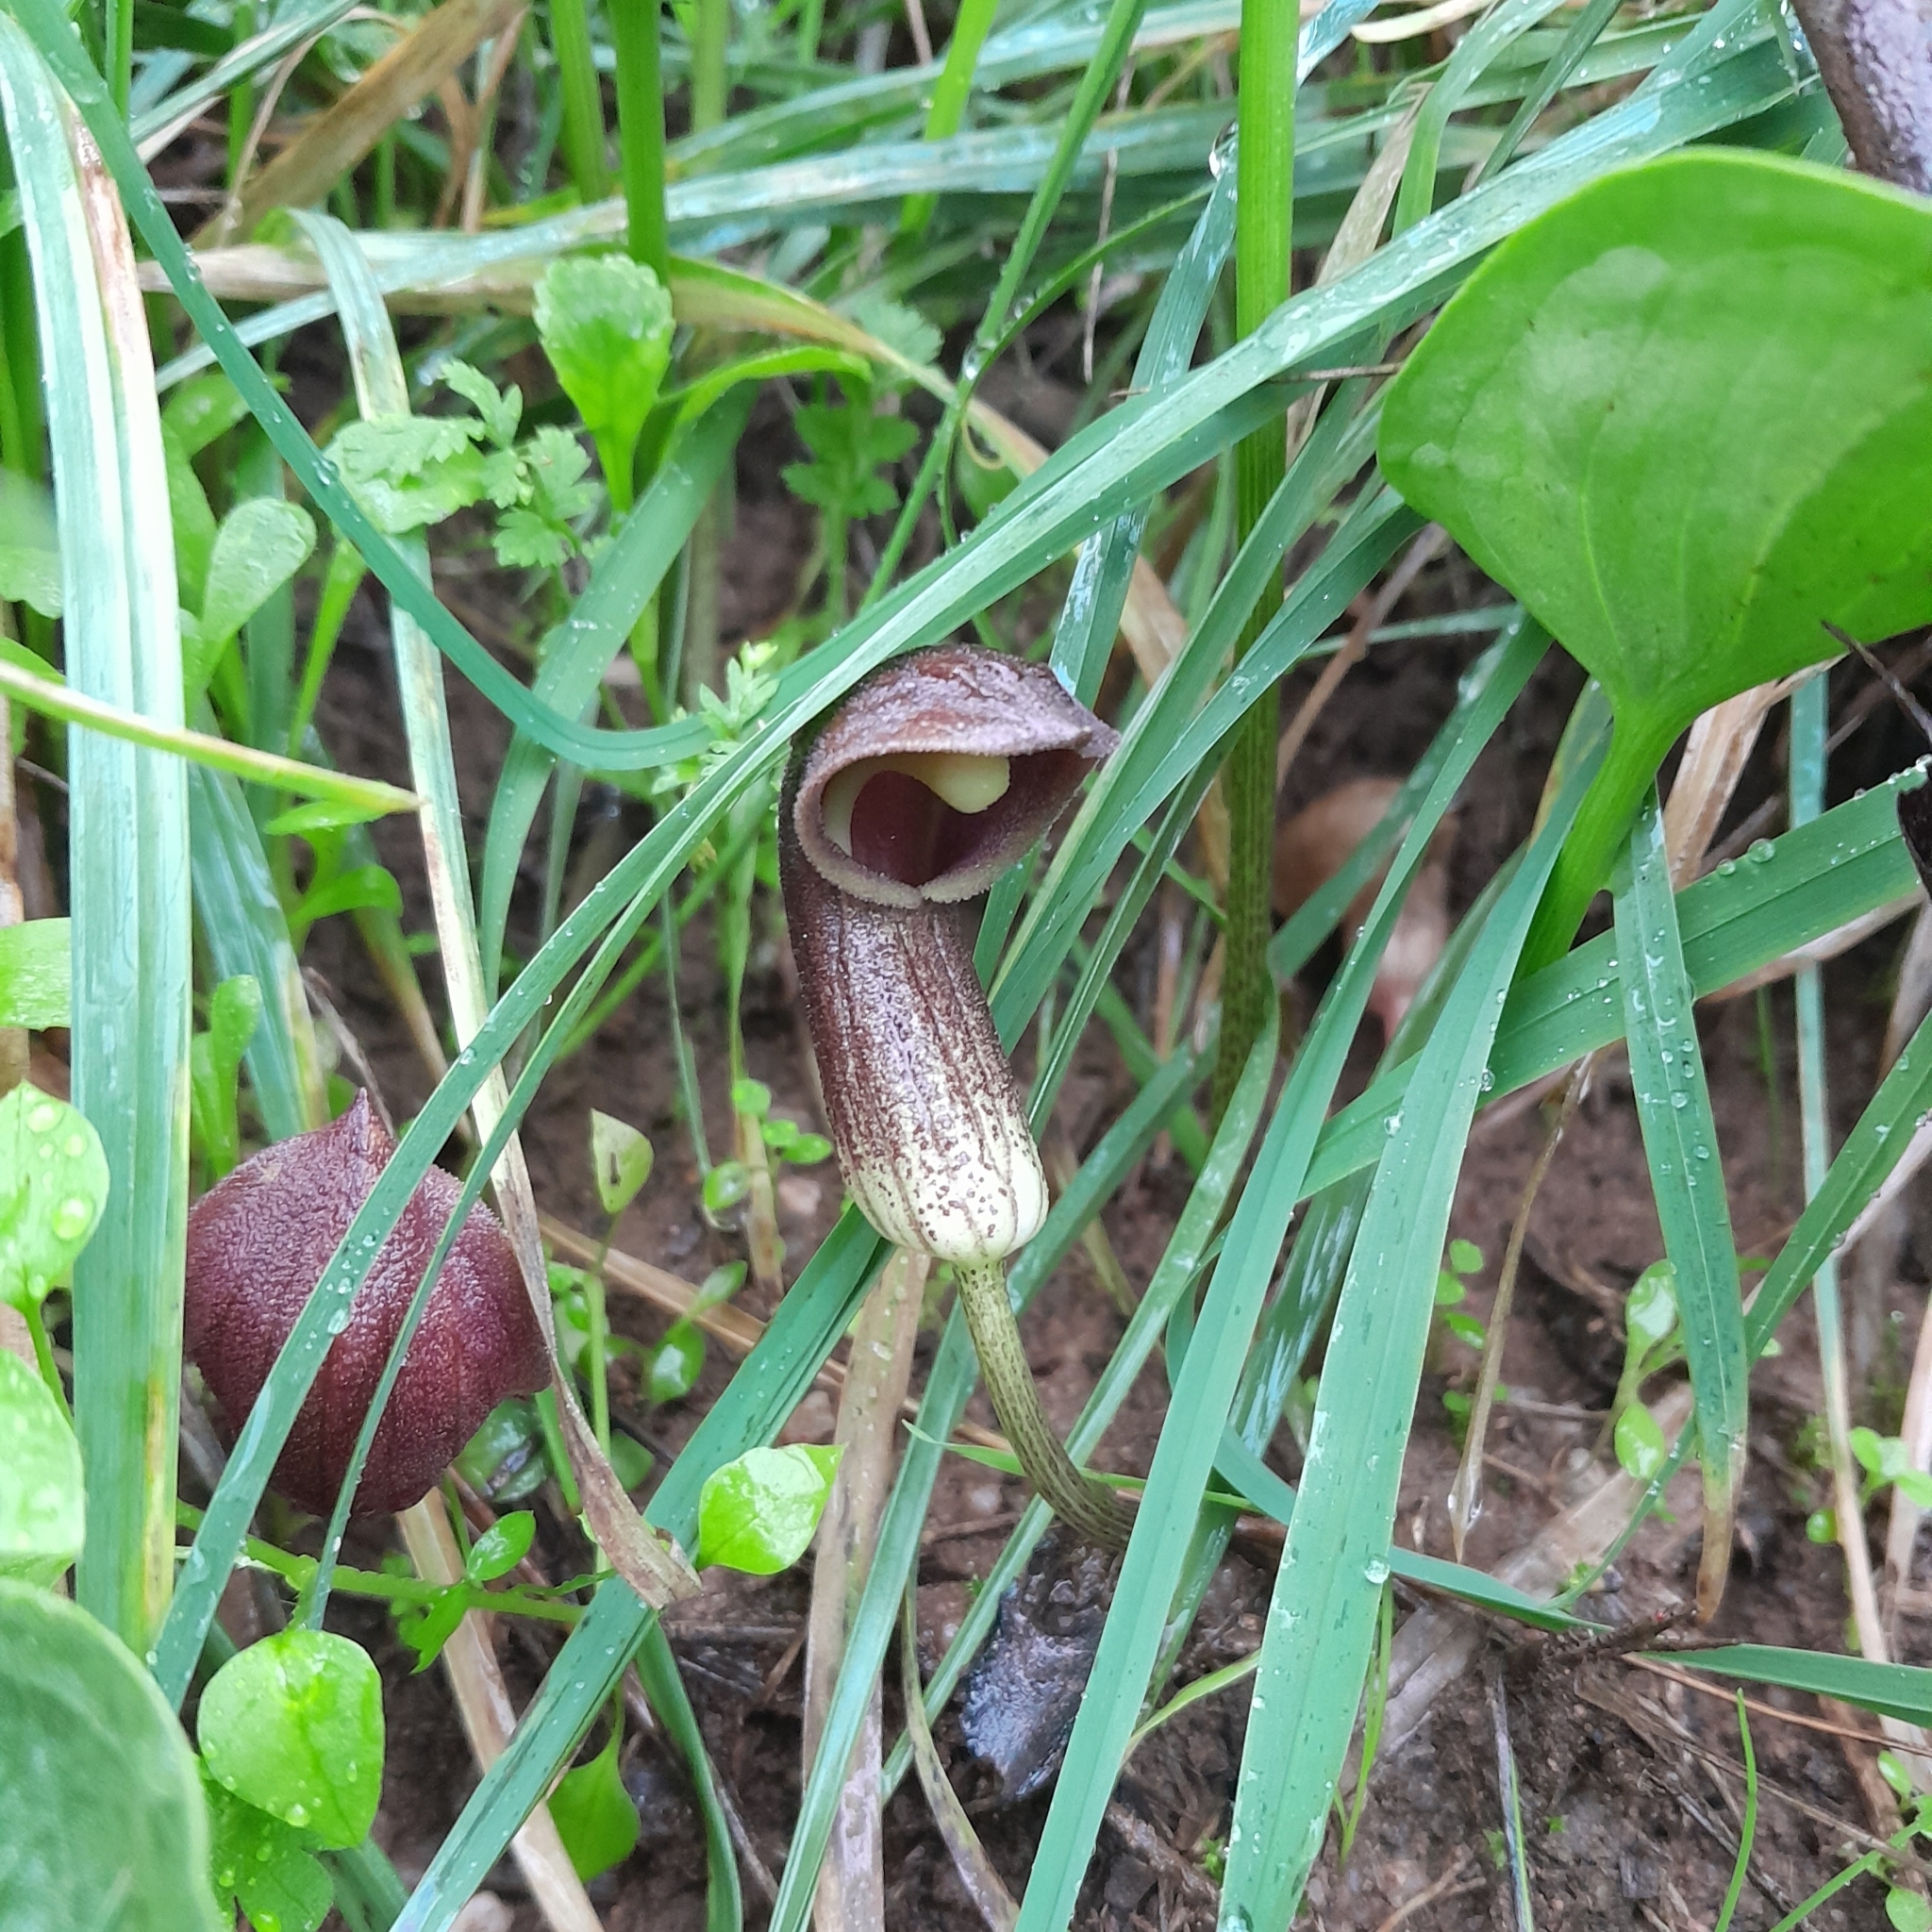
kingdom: Plantae
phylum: Tracheophyta
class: Liliopsida
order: Alismatales
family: Araceae
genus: Arisarum
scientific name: Arisarum simorrhinum
